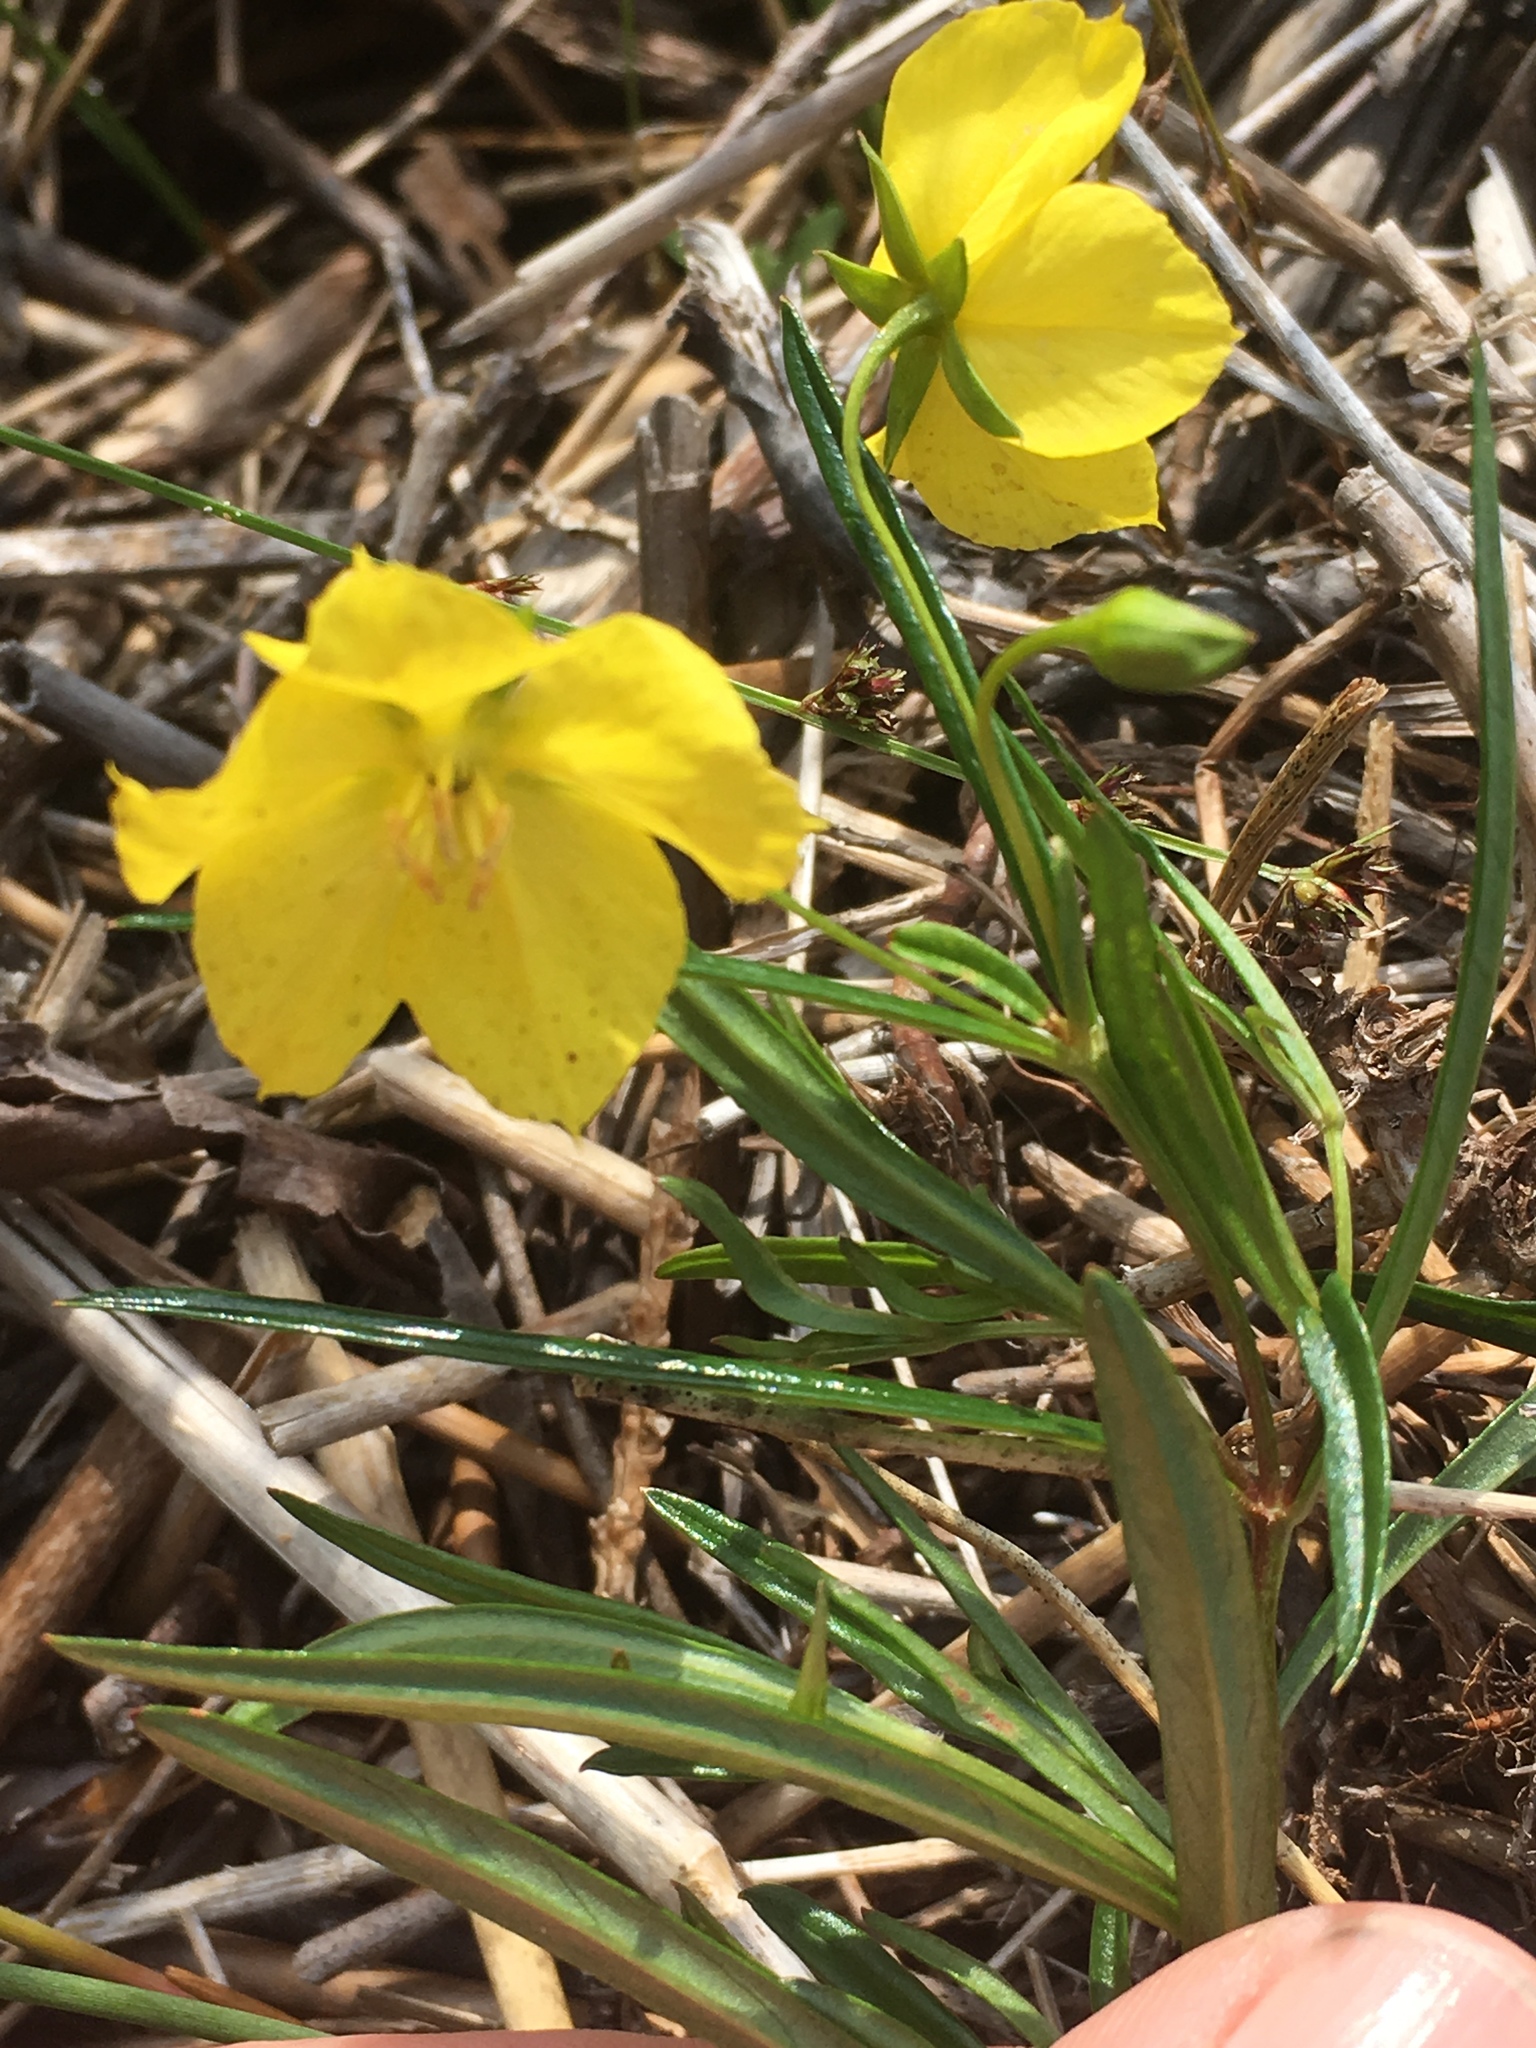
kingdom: Plantae
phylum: Tracheophyta
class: Magnoliopsida
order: Ericales
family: Primulaceae
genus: Lysimachia
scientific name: Lysimachia quadriflora
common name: Four-flowered loosestrife
